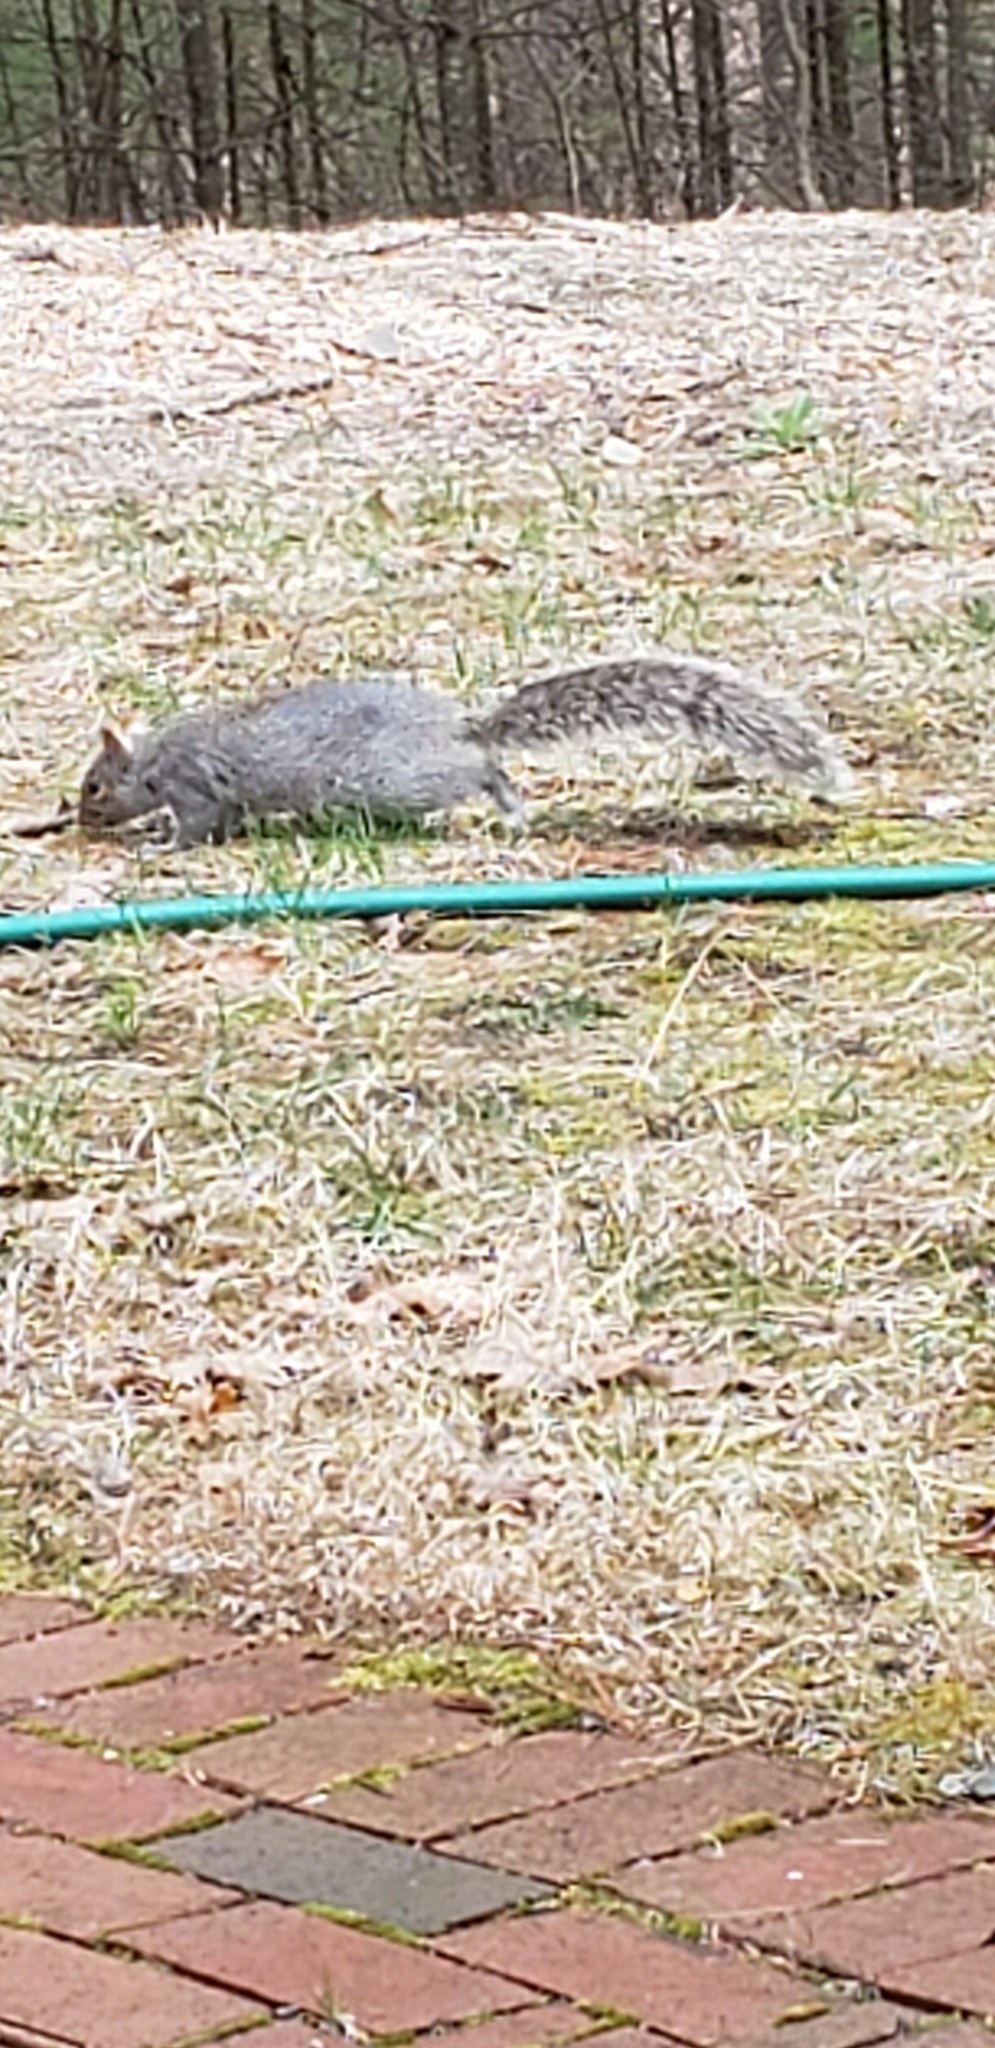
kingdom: Animalia
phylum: Chordata
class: Mammalia
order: Rodentia
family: Sciuridae
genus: Sciurus
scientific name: Sciurus carolinensis
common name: Eastern gray squirrel
